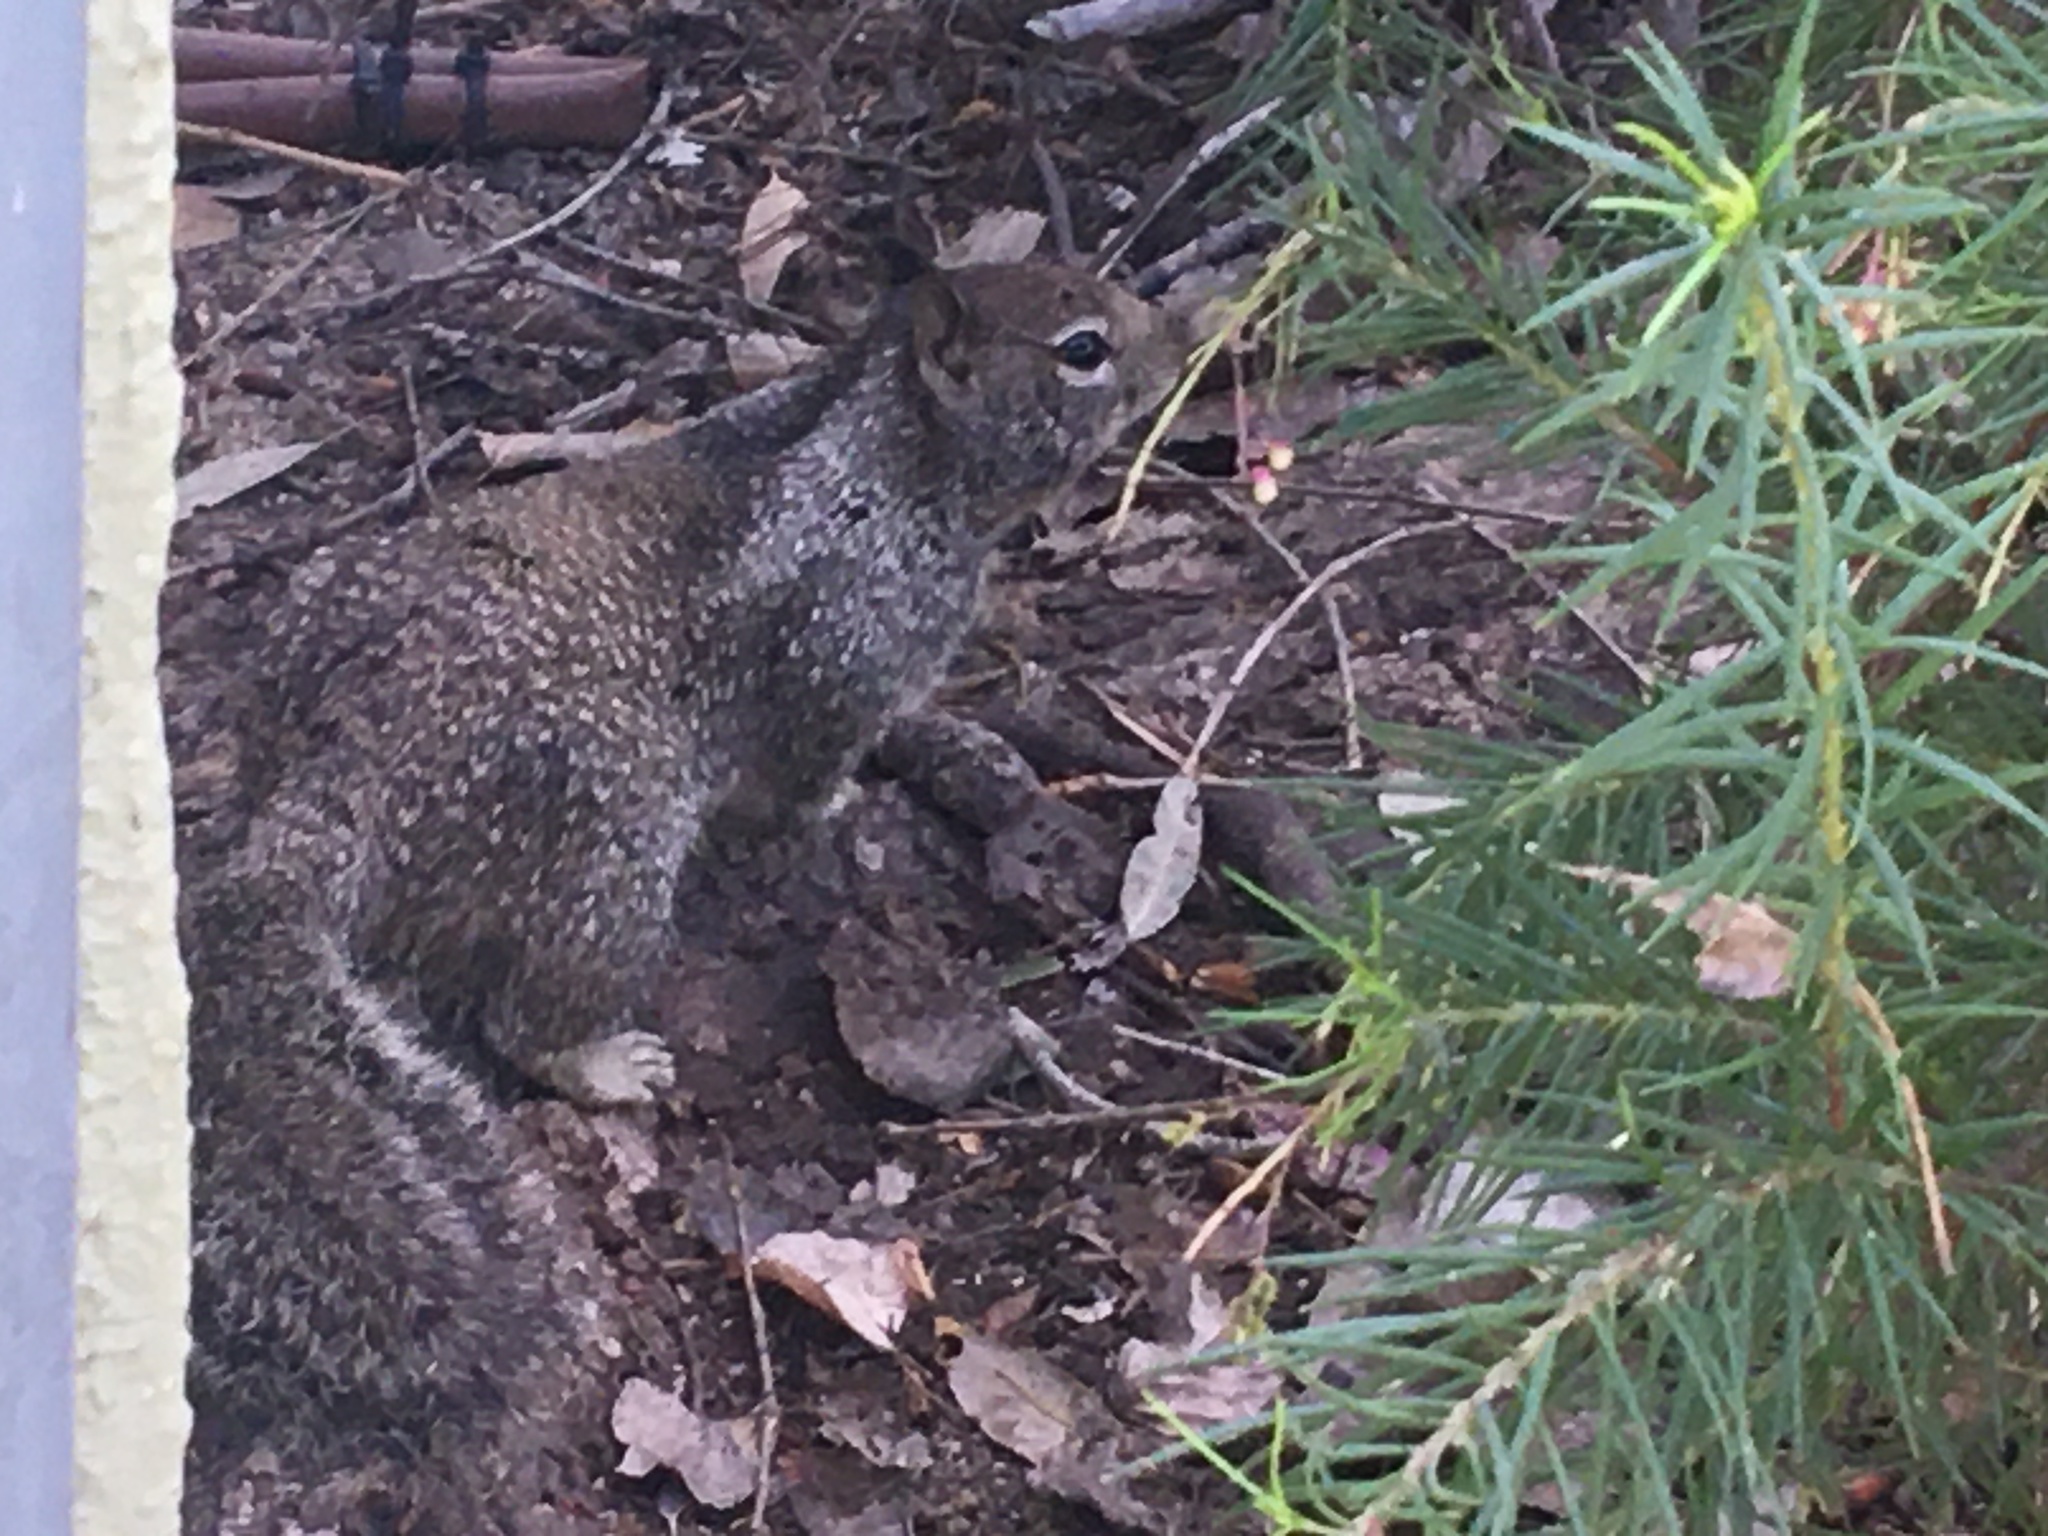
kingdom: Animalia
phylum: Chordata
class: Mammalia
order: Rodentia
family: Sciuridae
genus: Otospermophilus
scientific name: Otospermophilus beecheyi
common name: California ground squirrel
